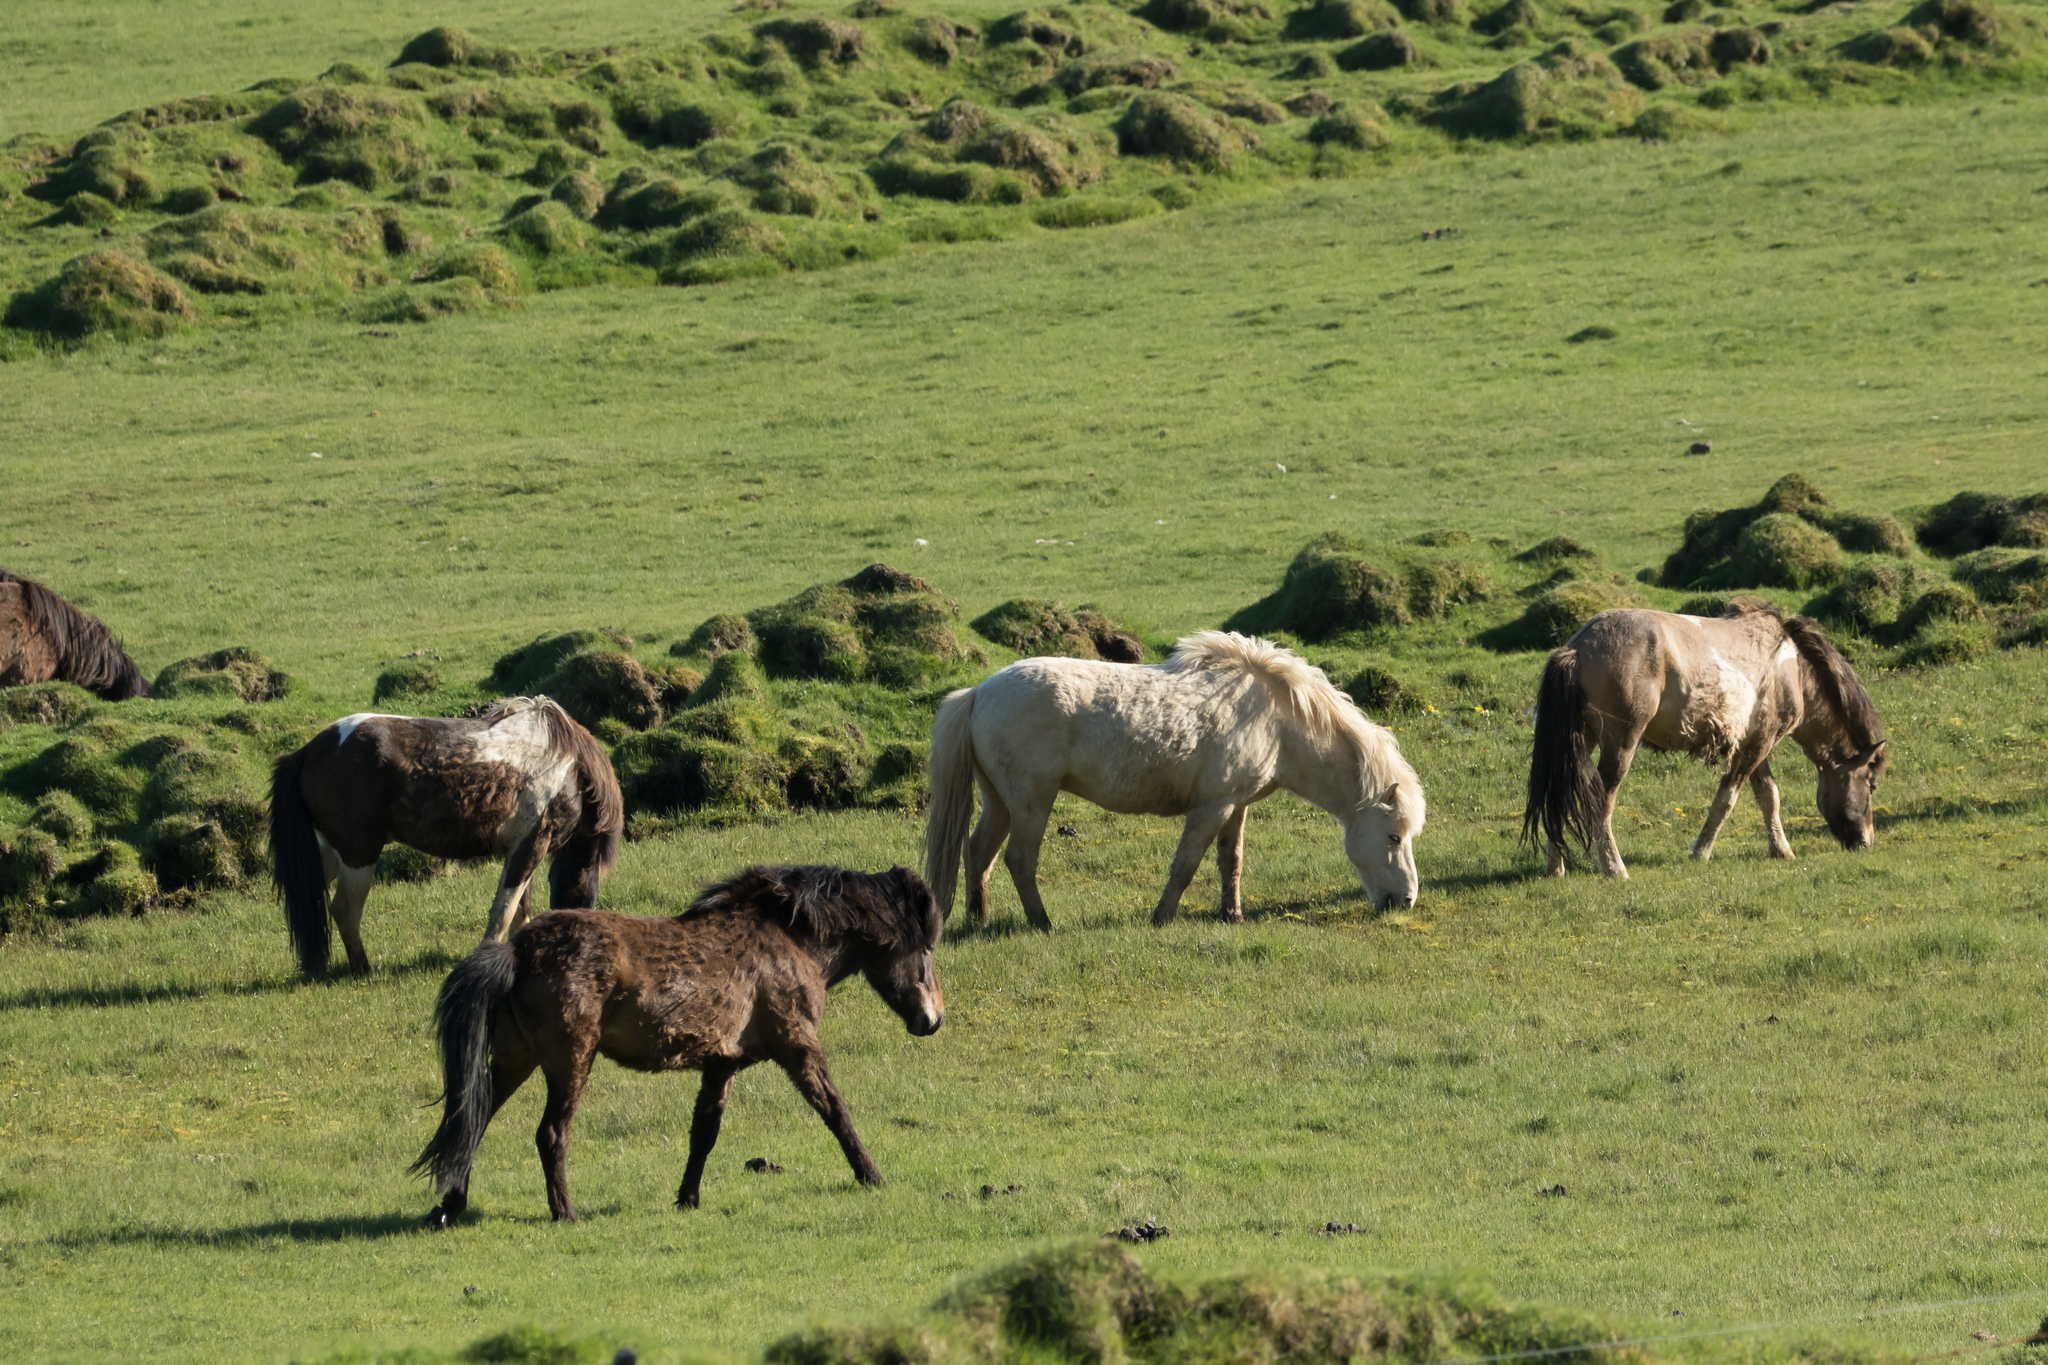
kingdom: Animalia
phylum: Chordata
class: Mammalia
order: Perissodactyla
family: Equidae
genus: Equus
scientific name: Equus caballus
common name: Horse
